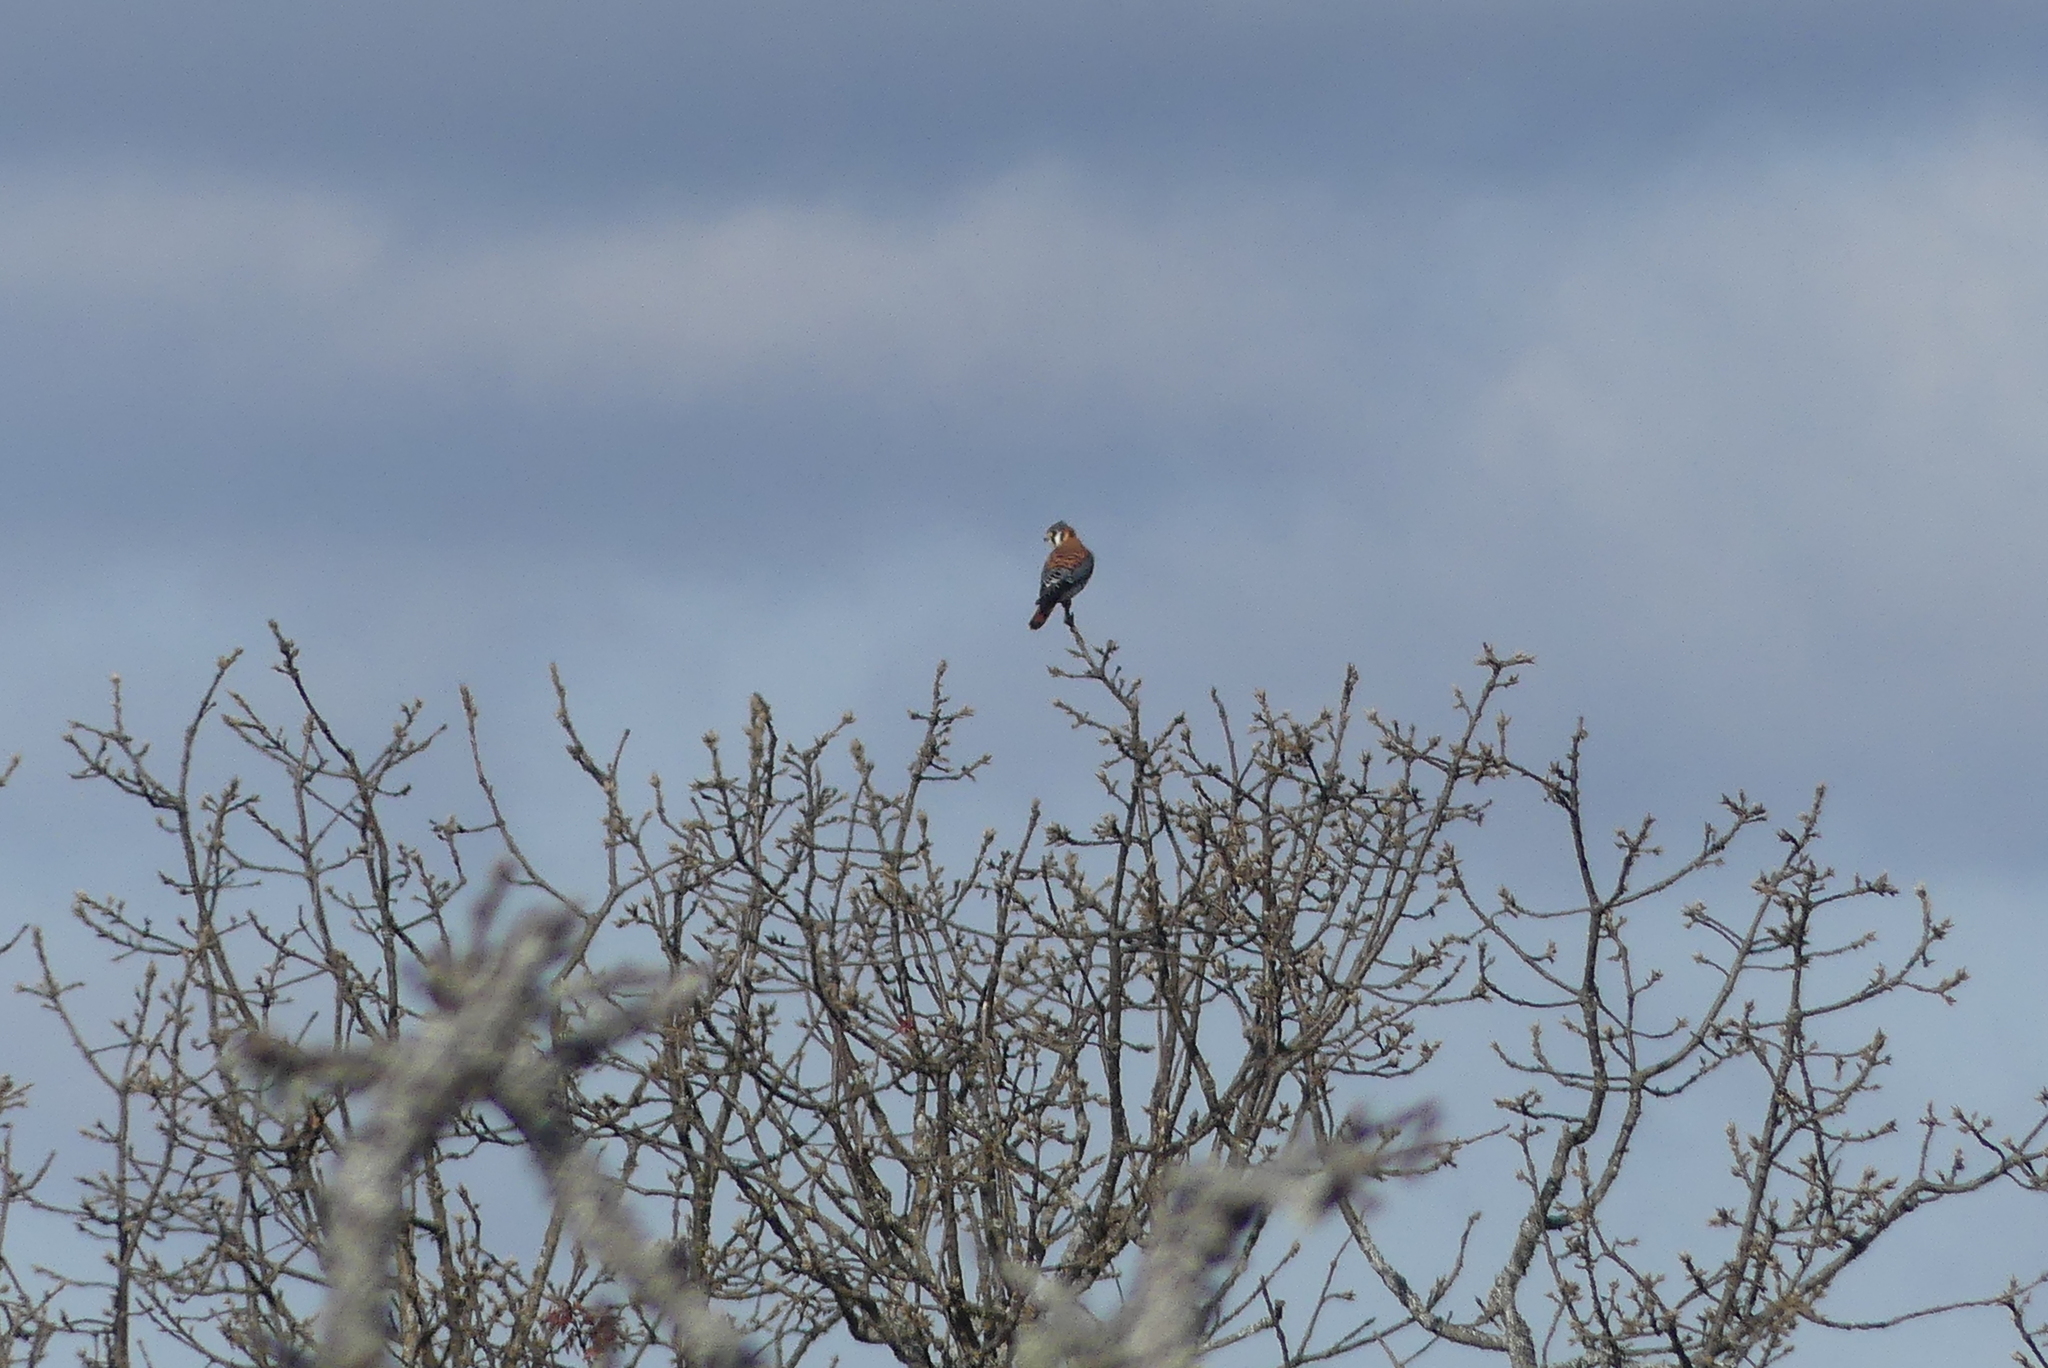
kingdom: Animalia
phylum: Chordata
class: Aves
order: Falconiformes
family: Falconidae
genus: Falco
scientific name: Falco sparverius
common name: American kestrel
